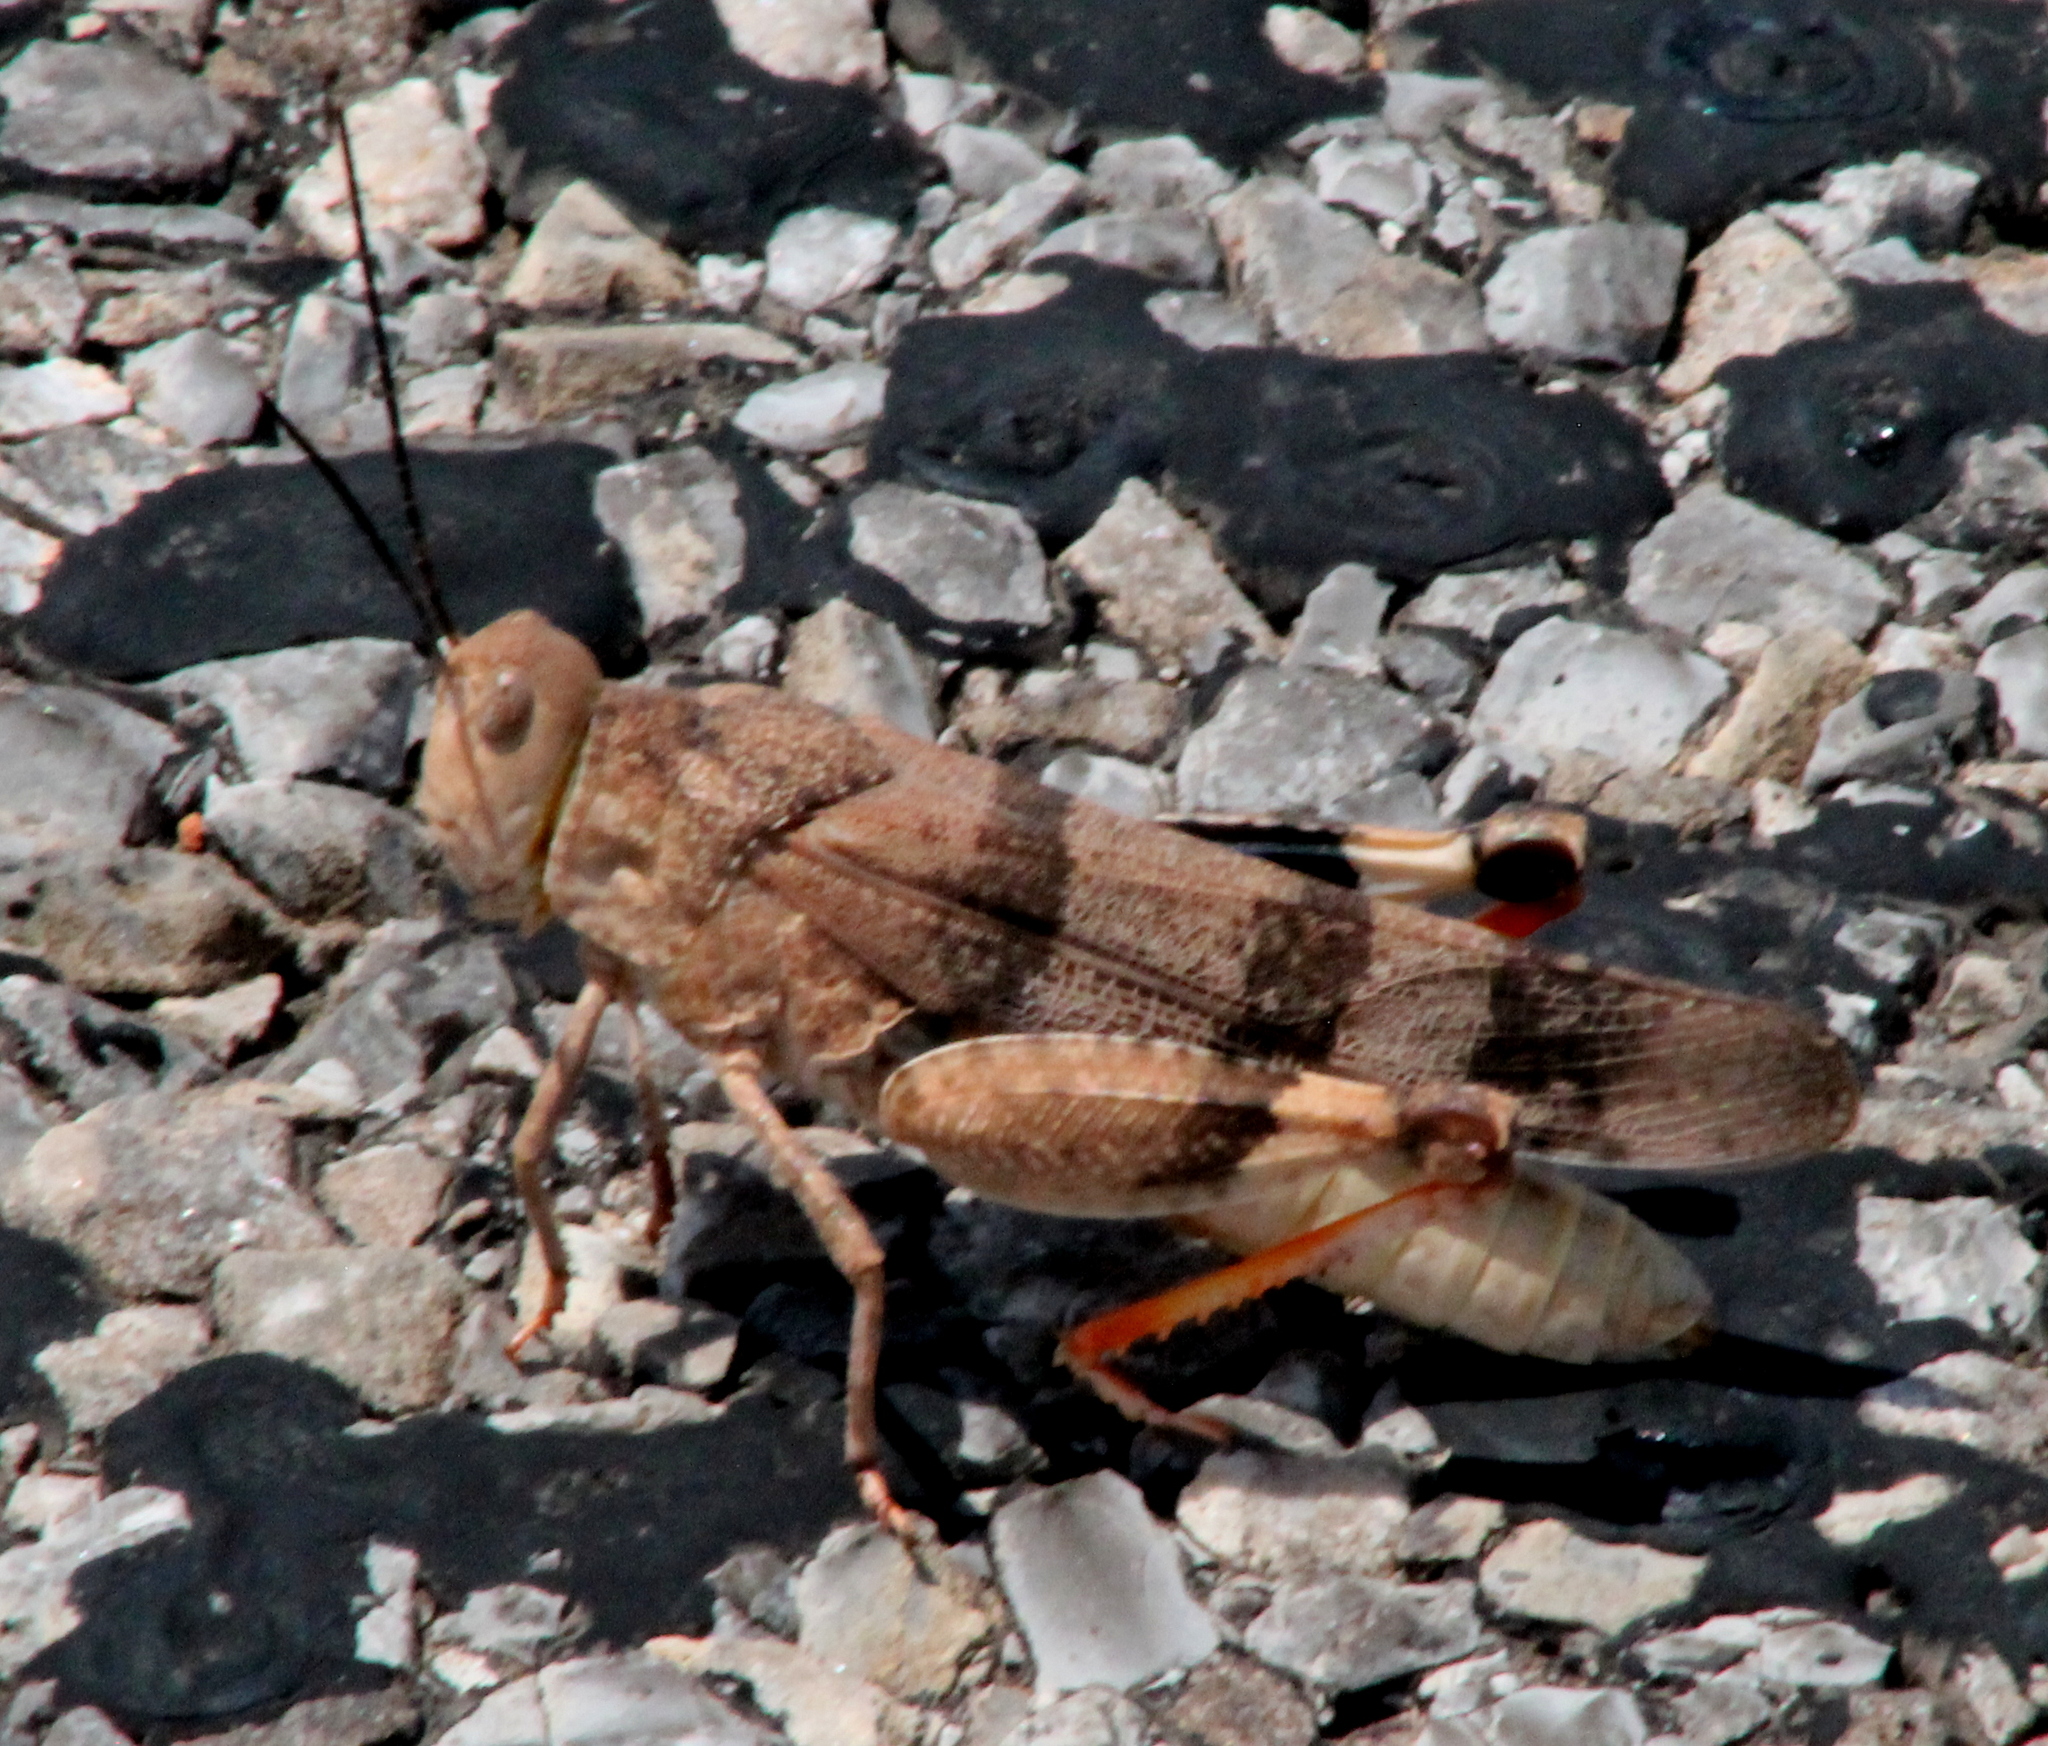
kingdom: Animalia
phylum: Arthropoda
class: Insecta
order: Orthoptera
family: Acrididae
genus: Hadrotettix
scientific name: Hadrotettix trifasciatus
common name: Threebanded grasshopper
